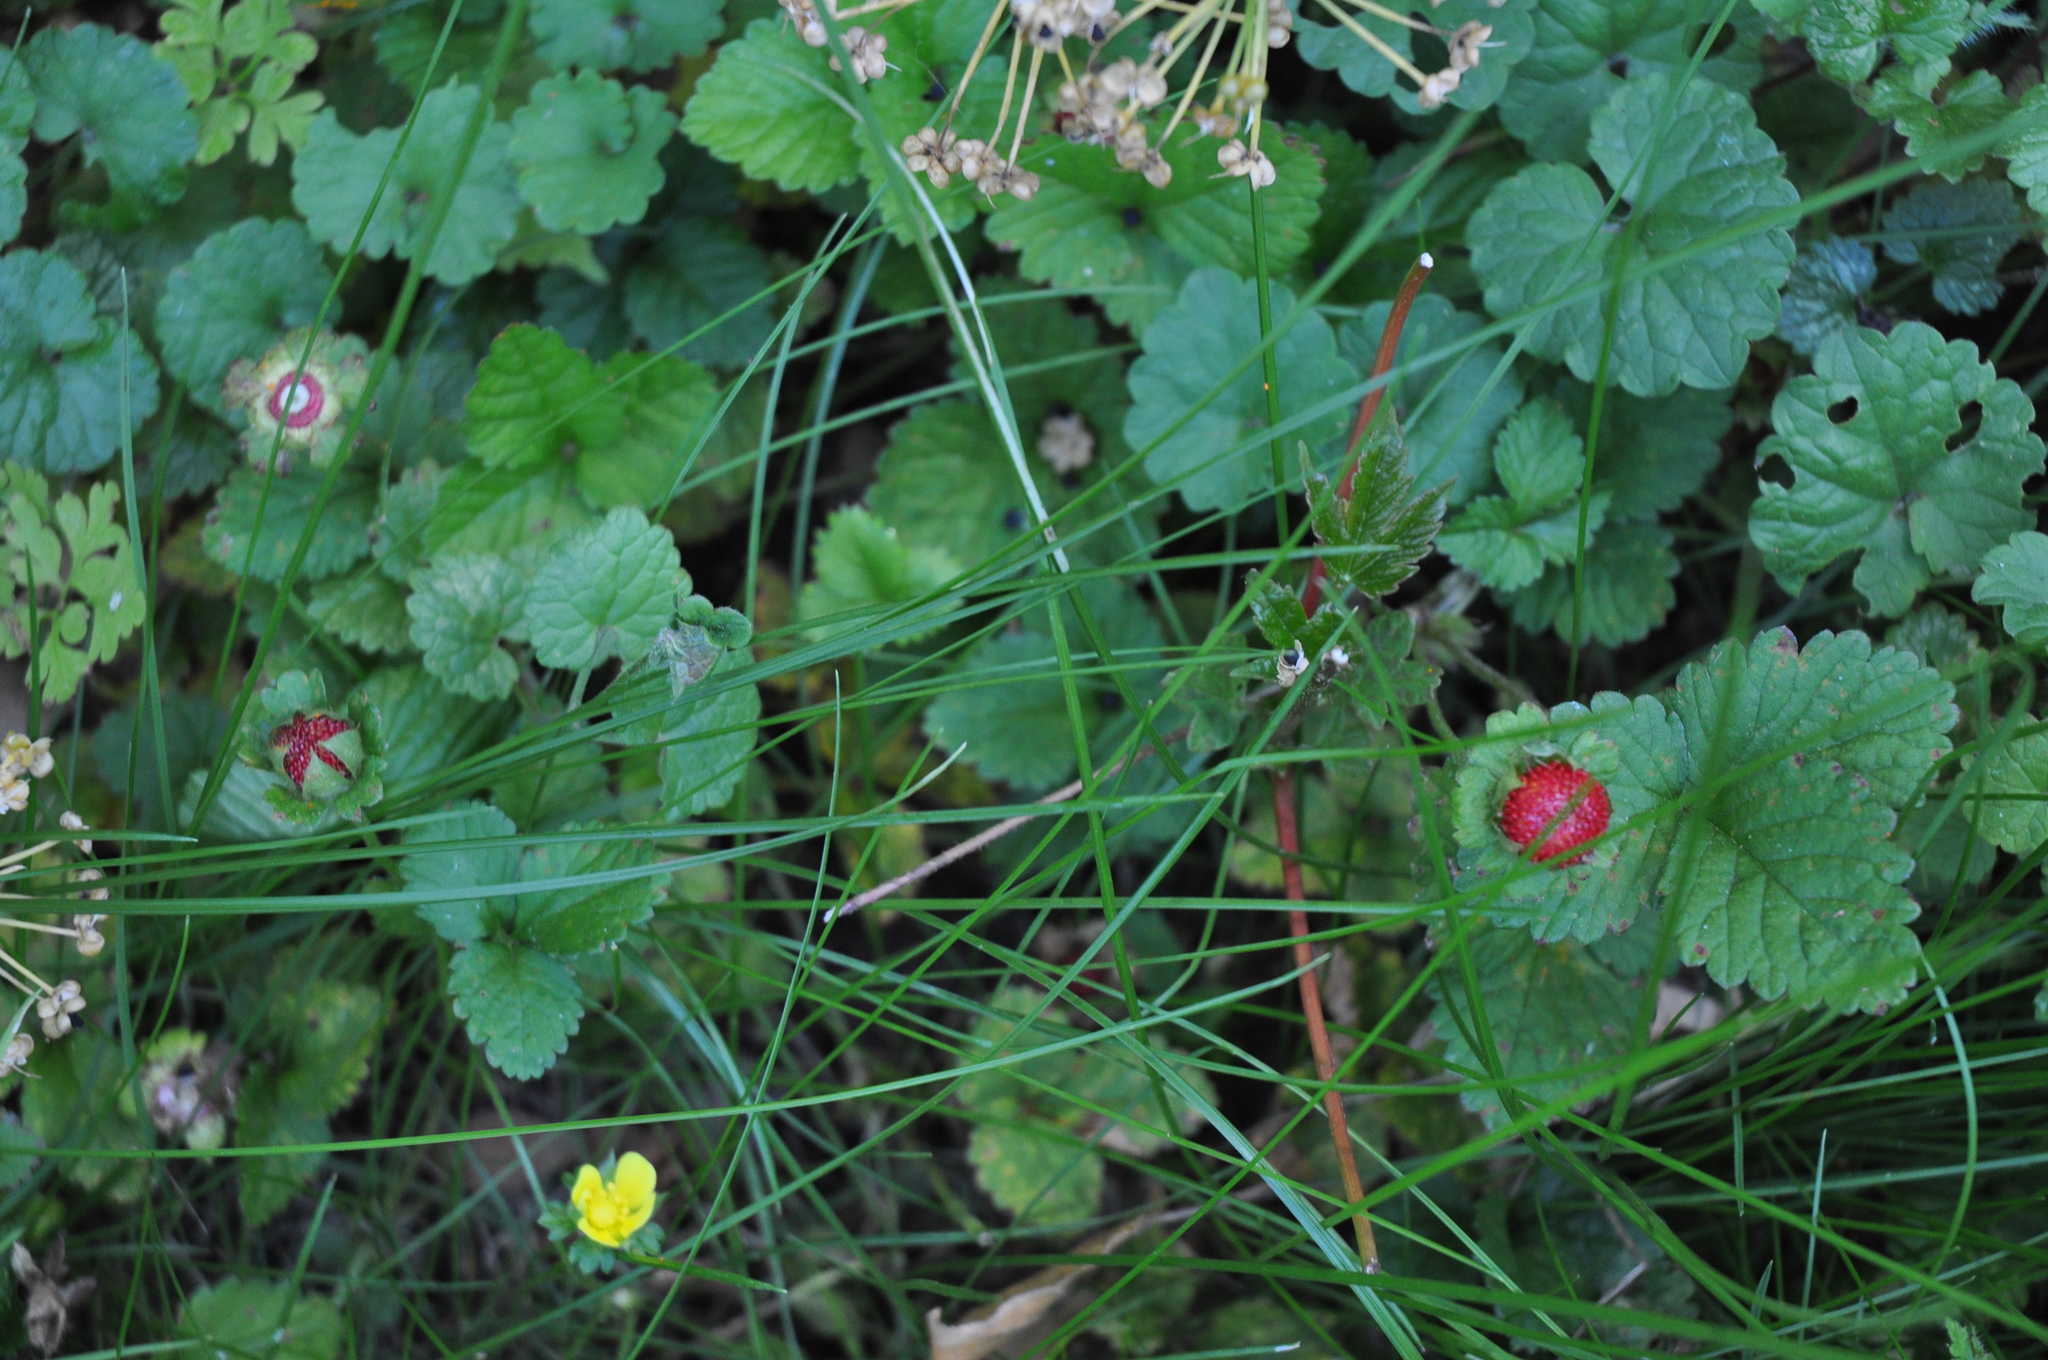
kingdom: Plantae
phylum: Tracheophyta
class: Magnoliopsida
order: Rosales
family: Rosaceae
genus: Potentilla
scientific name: Potentilla indica
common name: Yellow-flowered strawberry
